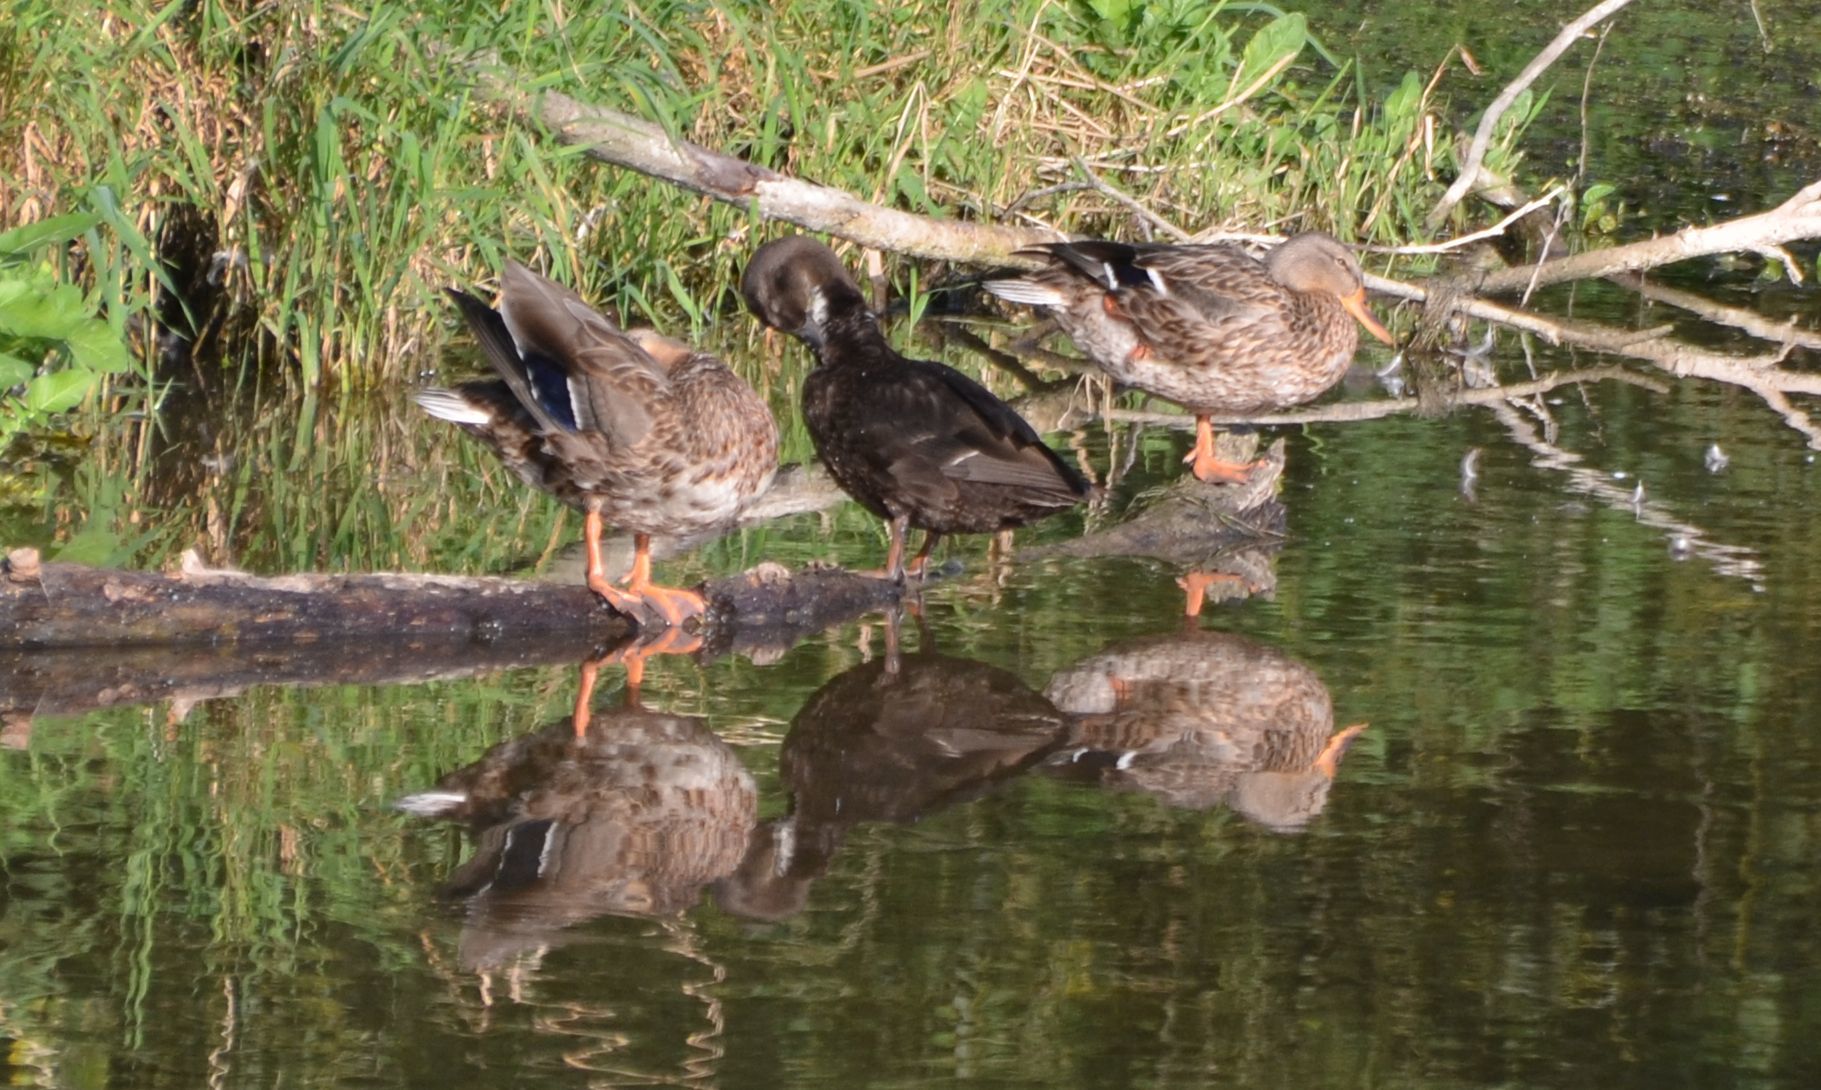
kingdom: Animalia
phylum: Chordata
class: Aves
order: Anseriformes
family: Anatidae
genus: Anas
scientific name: Anas platyrhynchos
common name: Mallard
